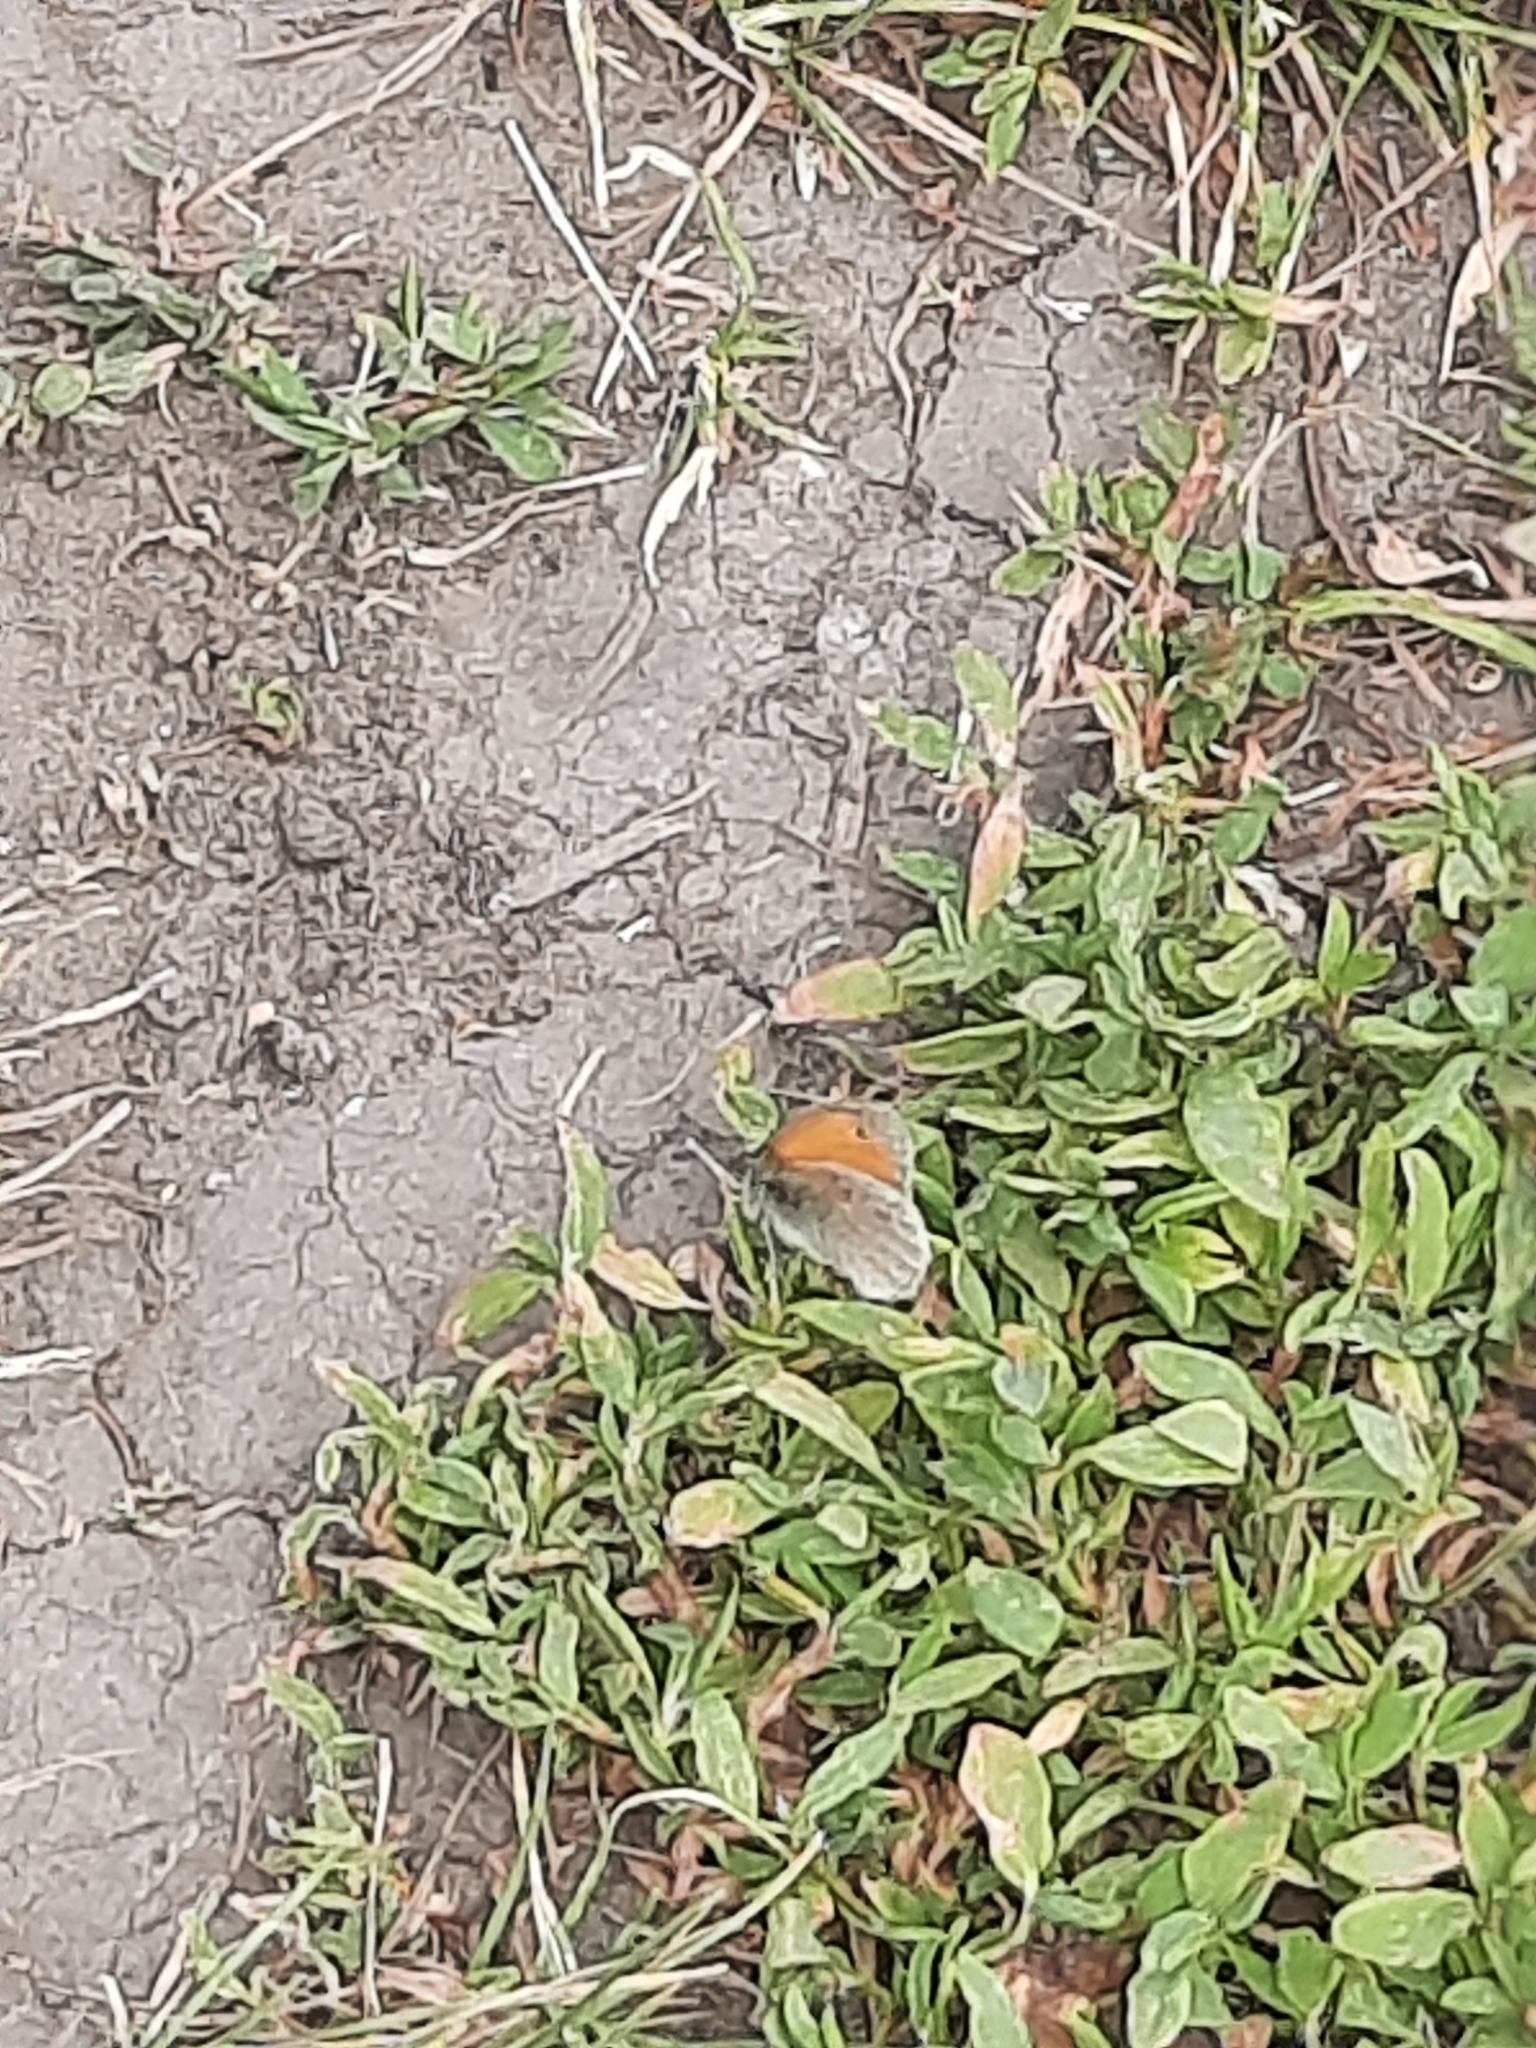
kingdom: Animalia
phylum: Arthropoda
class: Insecta
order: Lepidoptera
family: Nymphalidae
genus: Coenonympha
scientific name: Coenonympha pamphilus
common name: Small heath
